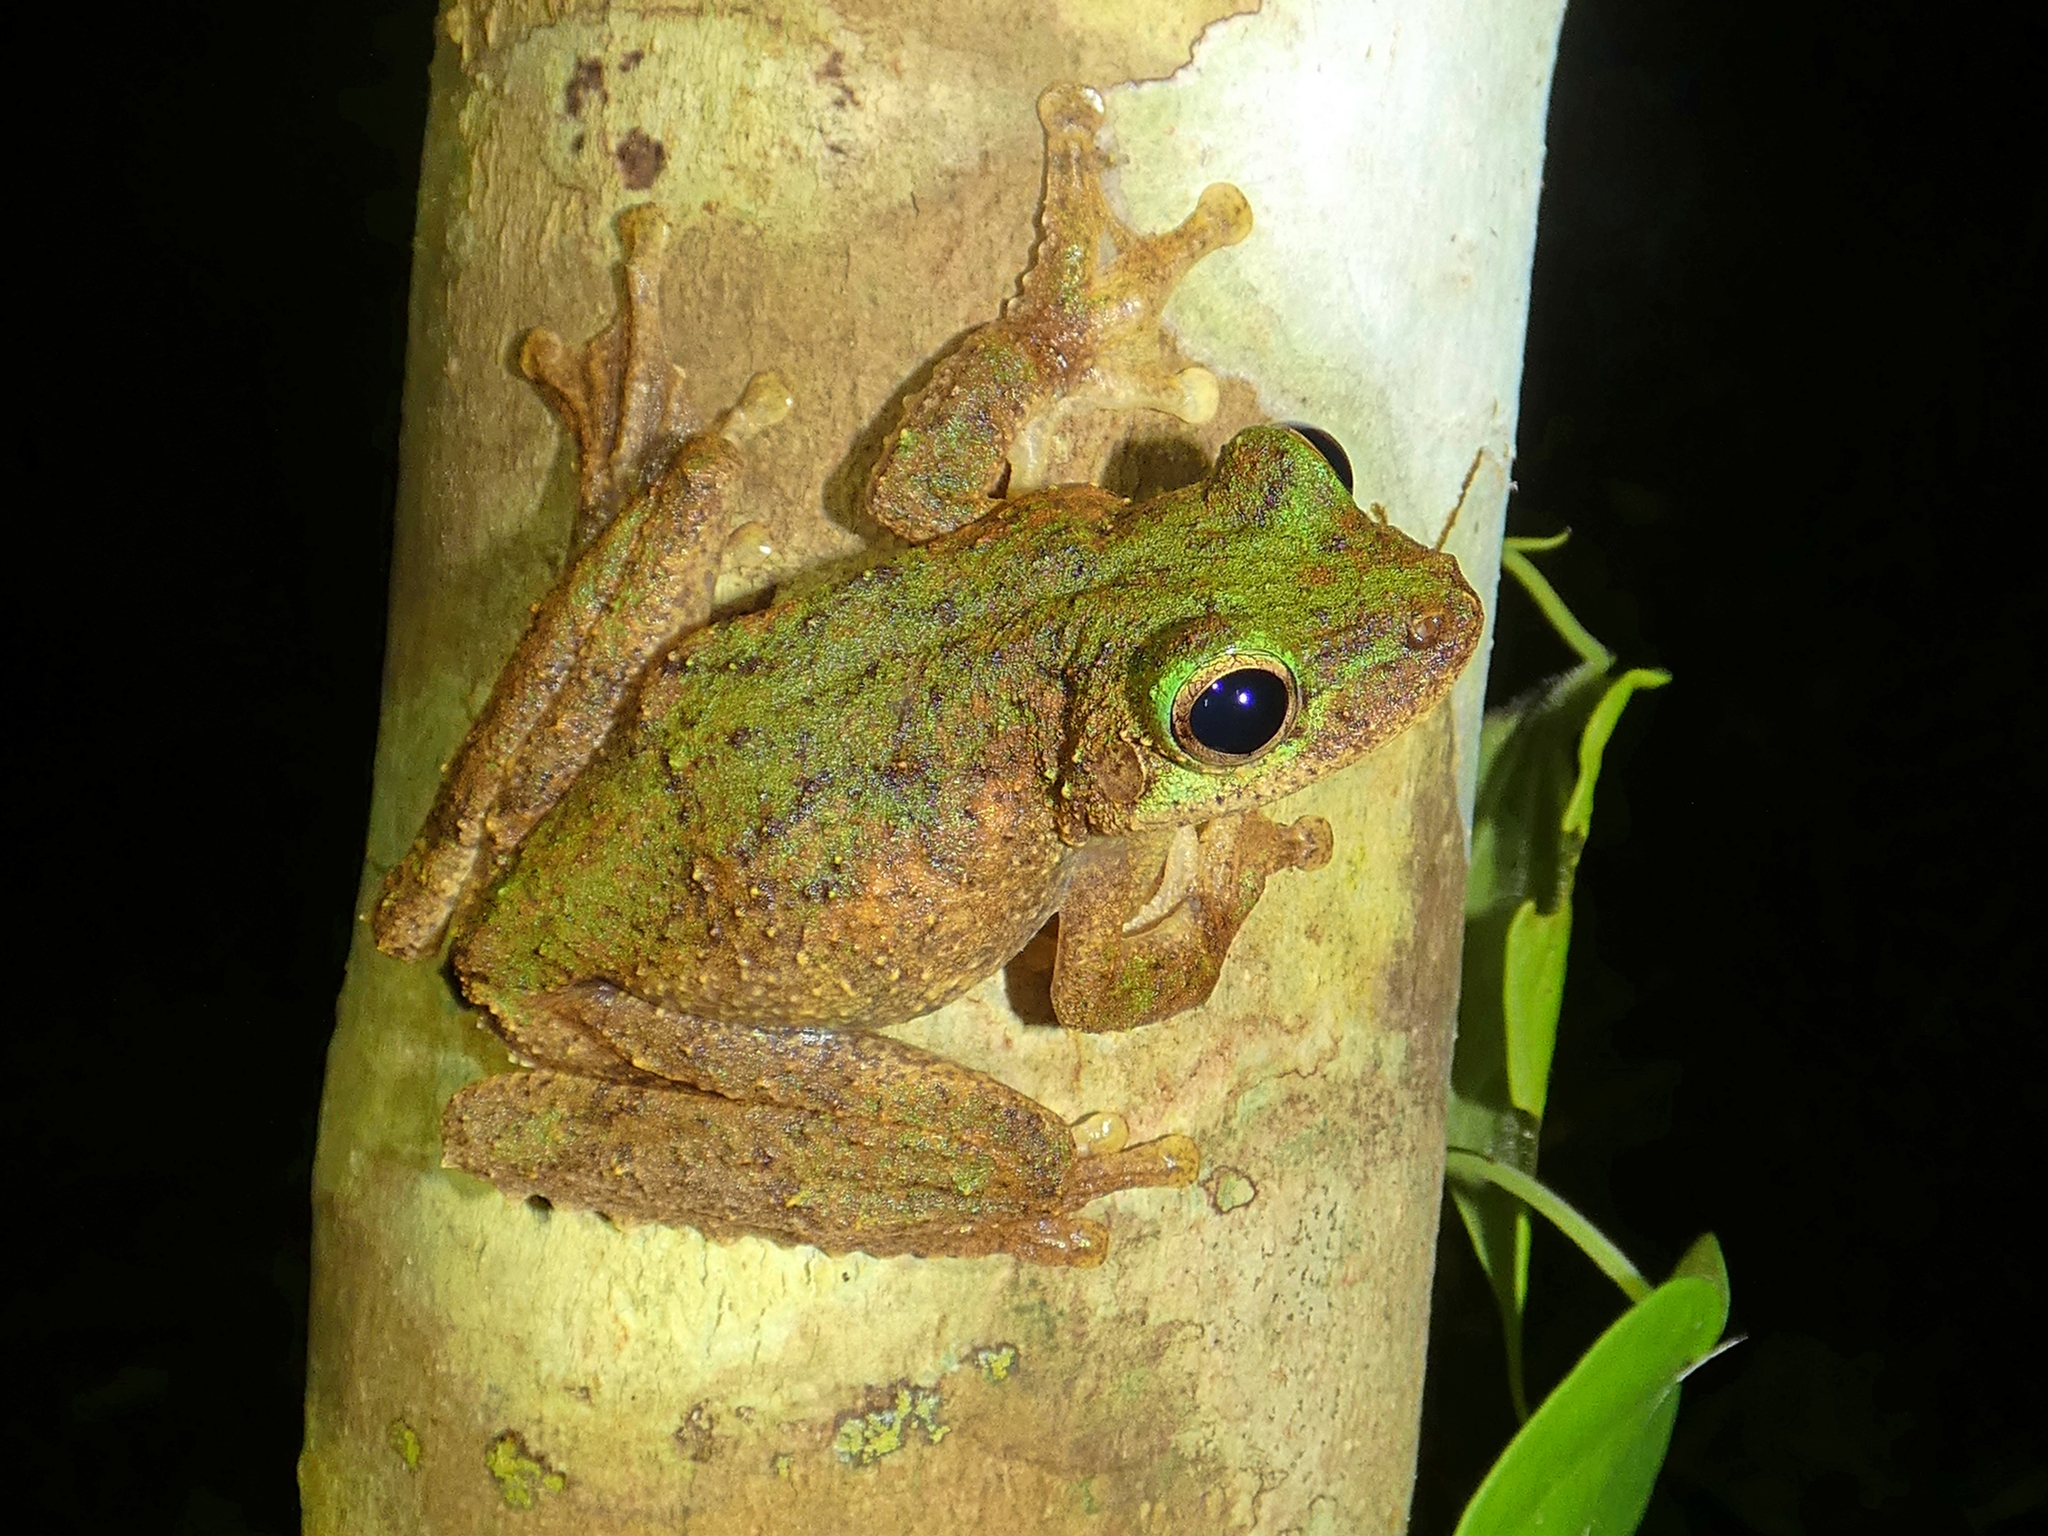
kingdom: Animalia
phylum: Chordata
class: Amphibia
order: Anura
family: Pelodryadidae
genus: Ranoidea
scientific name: Ranoidea serrata
